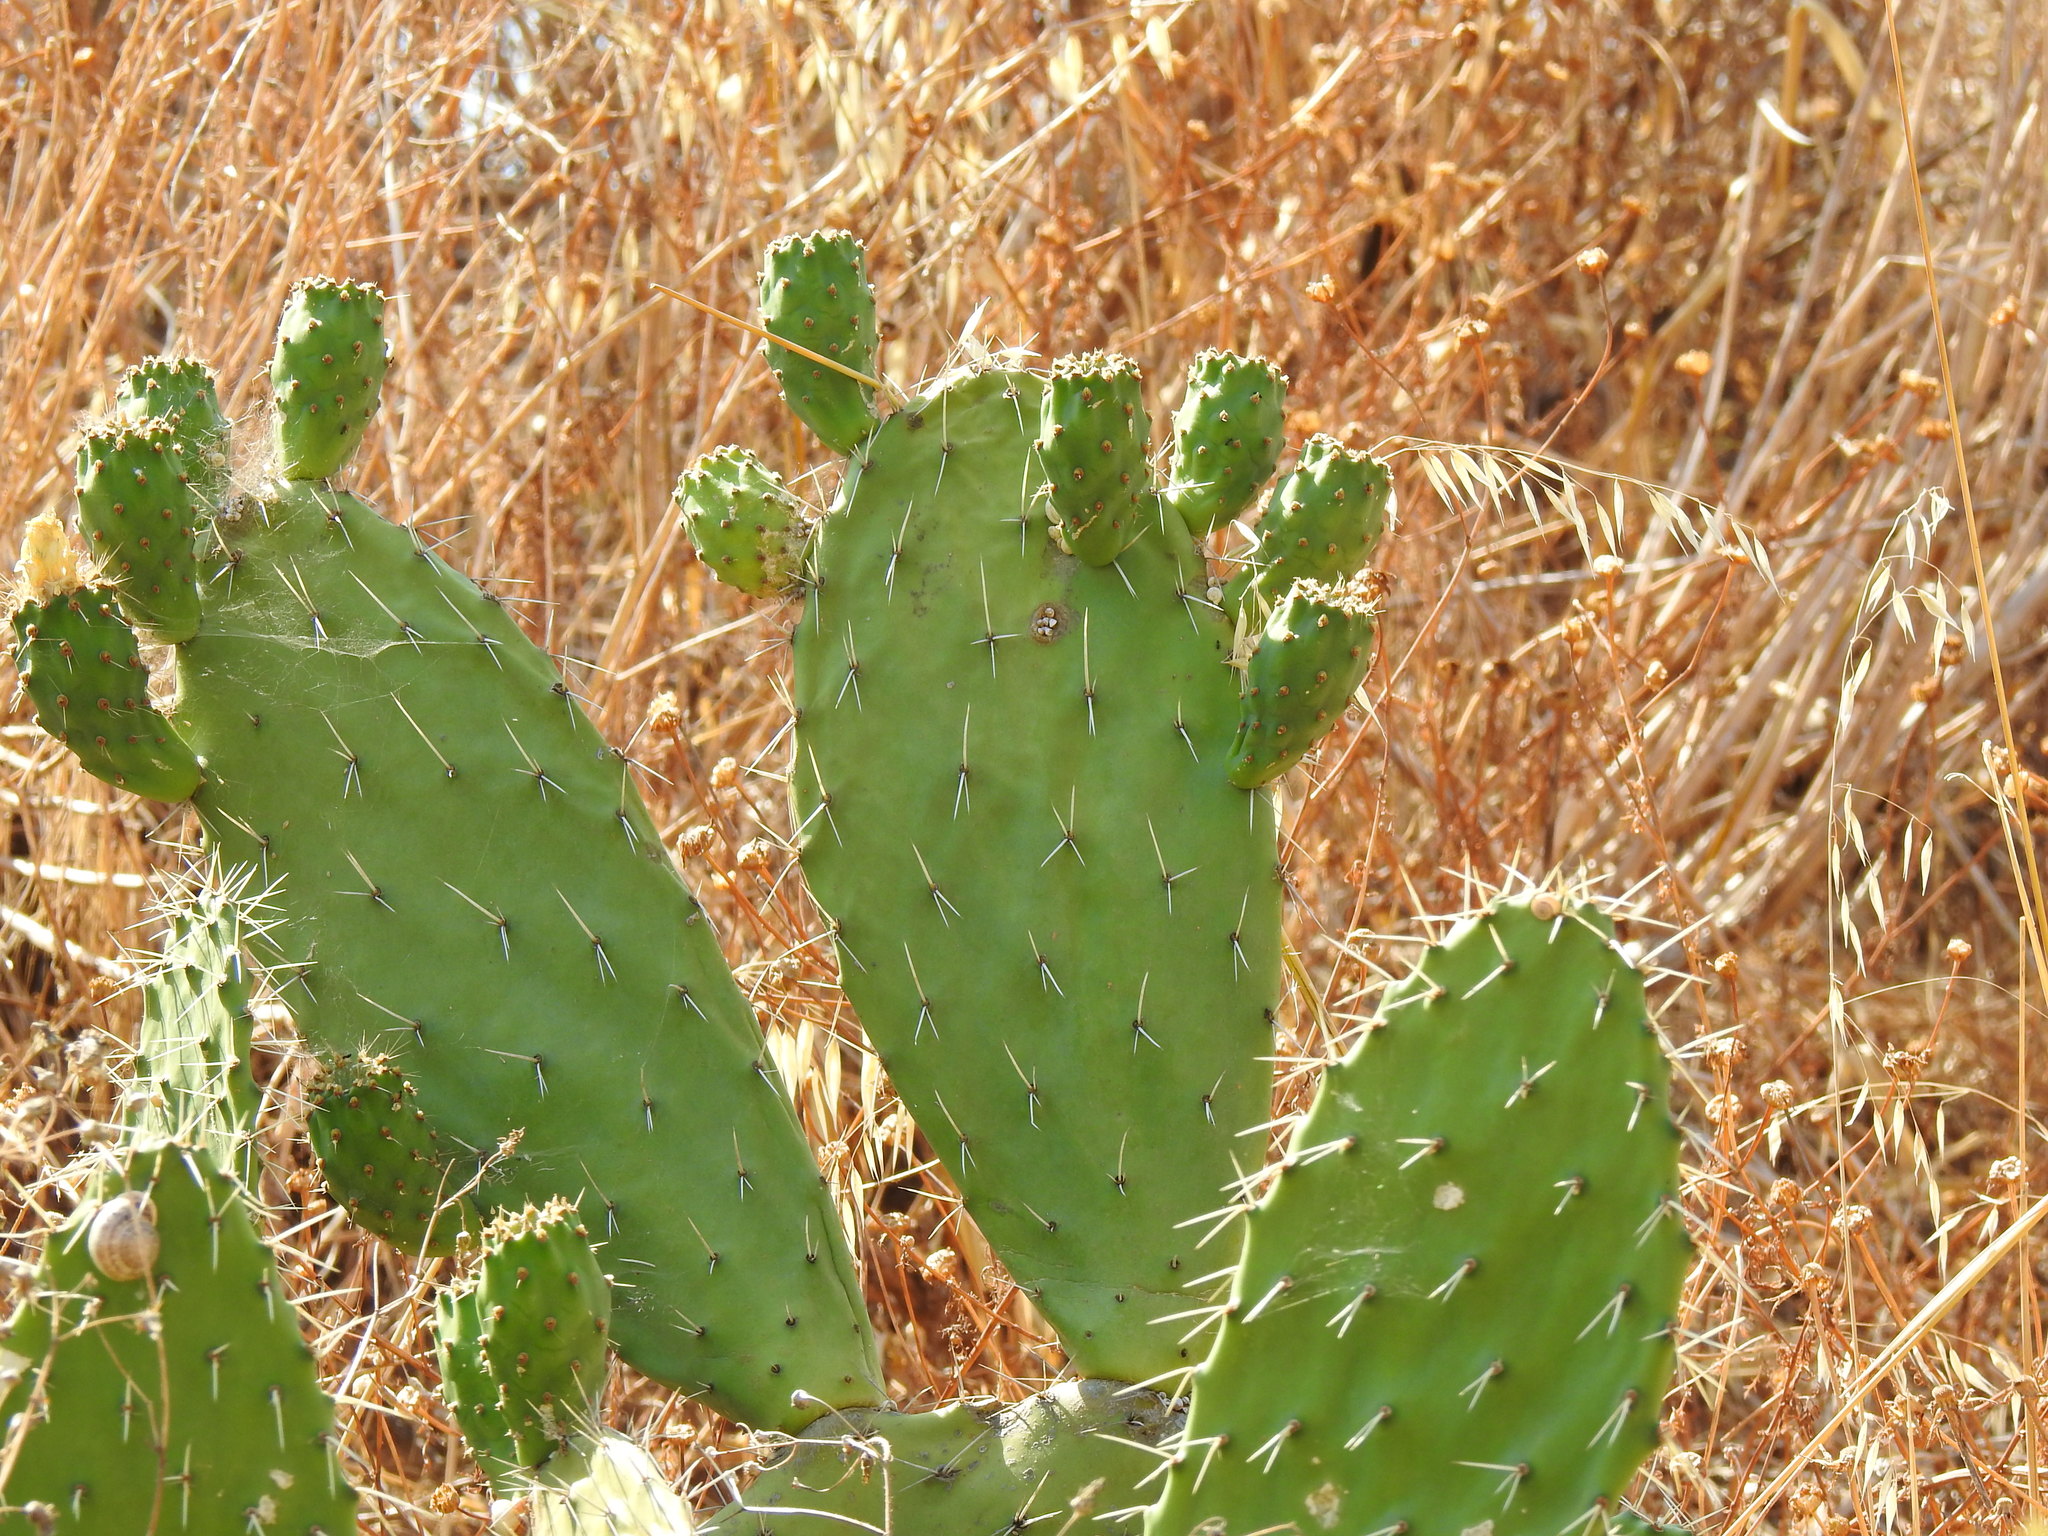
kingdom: Plantae
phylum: Tracheophyta
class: Magnoliopsida
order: Caryophyllales
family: Cactaceae
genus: Opuntia
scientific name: Opuntia ficus-indica
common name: Barbary fig
